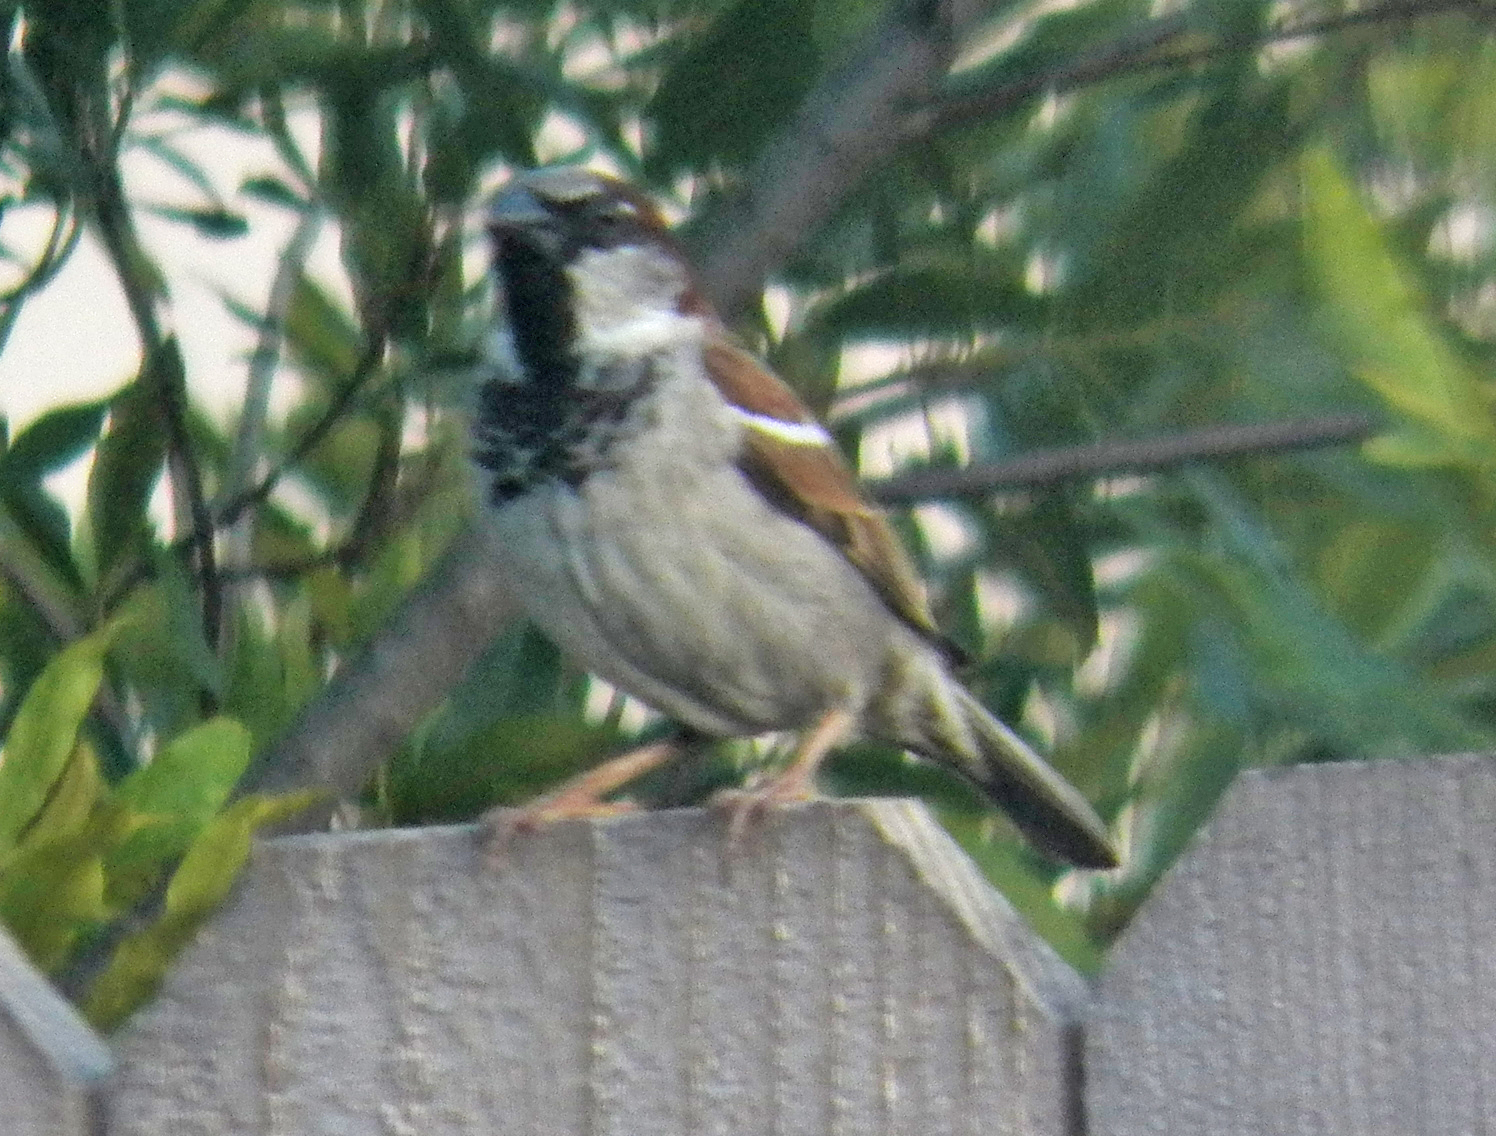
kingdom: Animalia
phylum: Chordata
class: Aves
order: Passeriformes
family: Passeridae
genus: Passer
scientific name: Passer domesticus
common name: House sparrow
